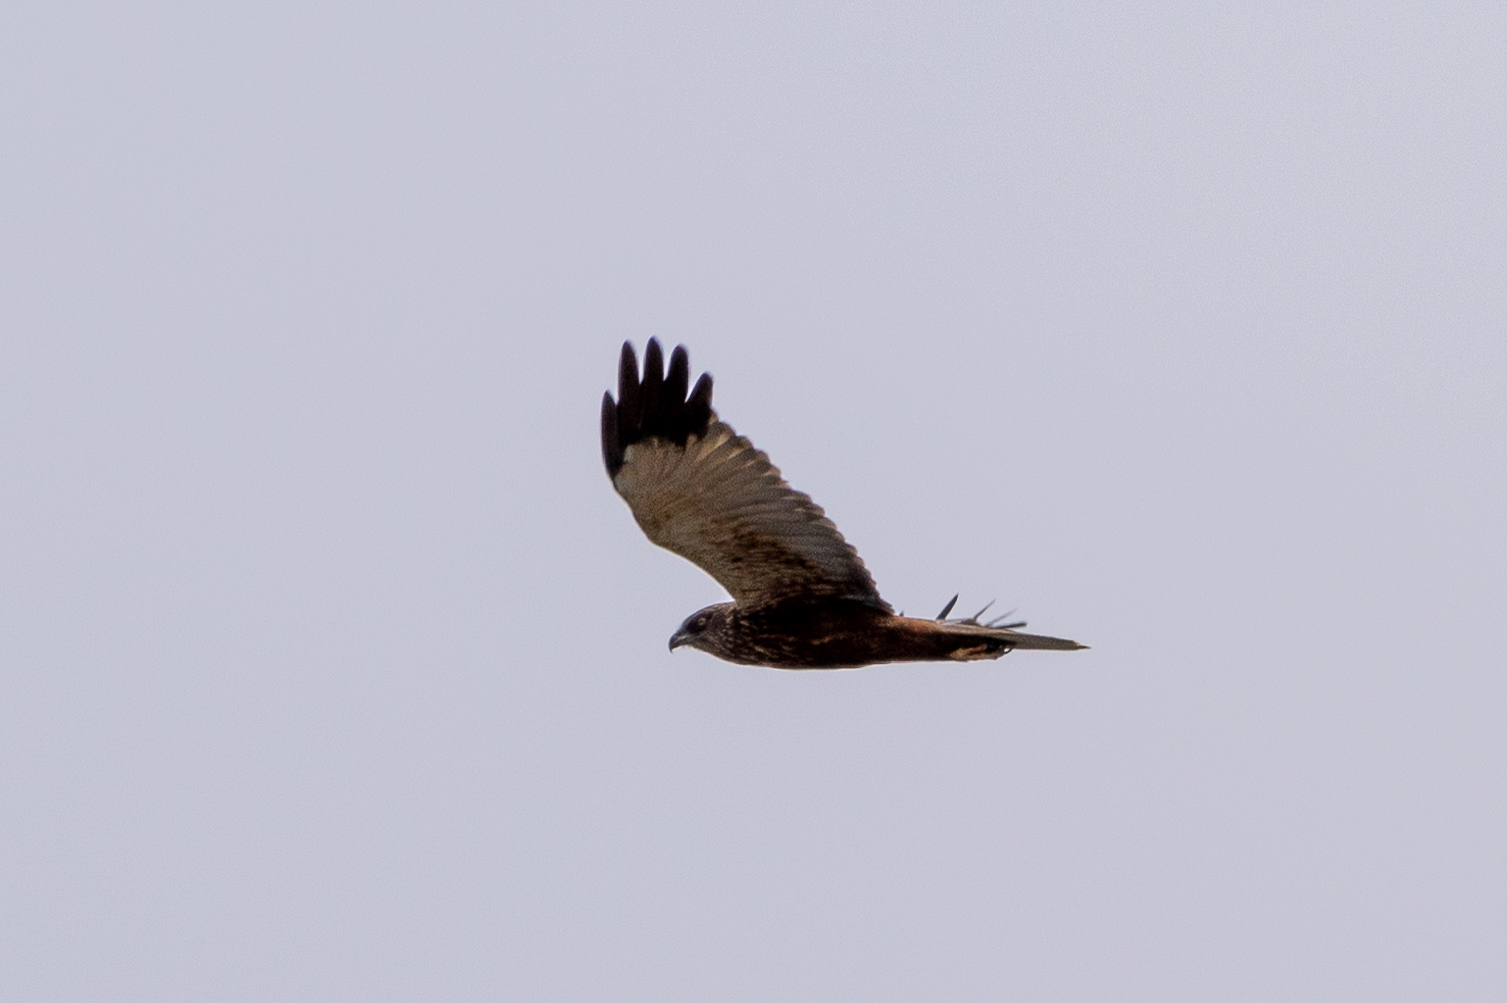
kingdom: Animalia
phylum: Chordata
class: Aves
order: Accipitriformes
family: Accipitridae
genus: Circus
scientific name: Circus aeruginosus
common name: Western marsh harrier
